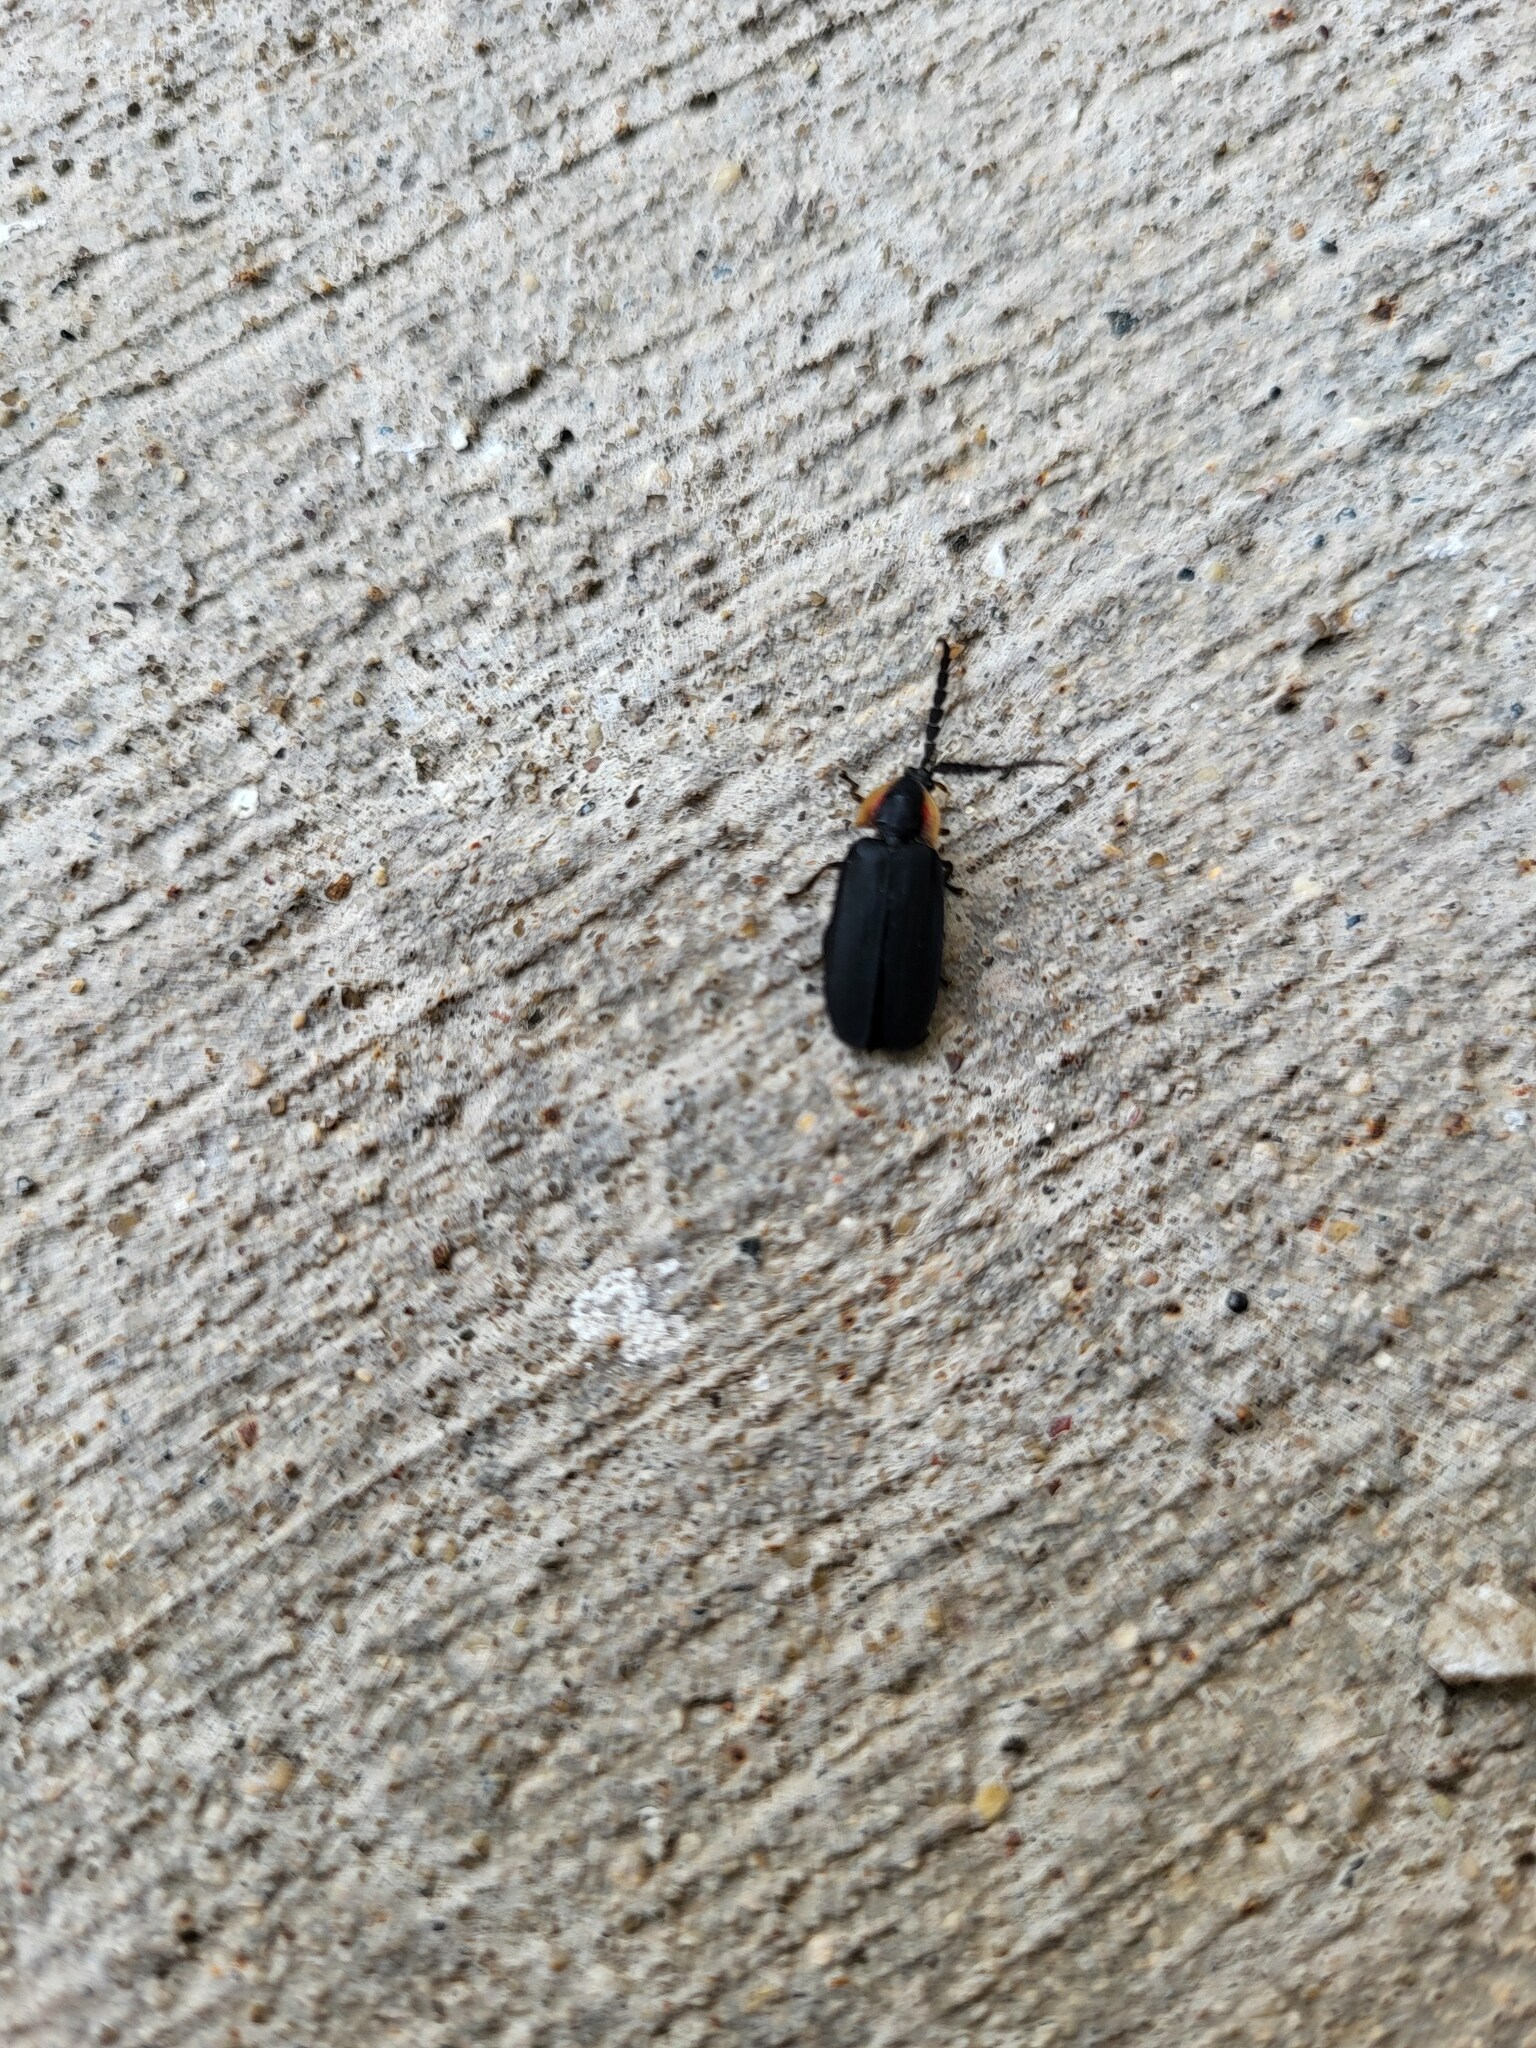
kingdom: Animalia
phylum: Arthropoda
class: Insecta
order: Coleoptera
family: Lampyridae
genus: Lucidota
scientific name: Lucidota atra
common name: Black firefly
